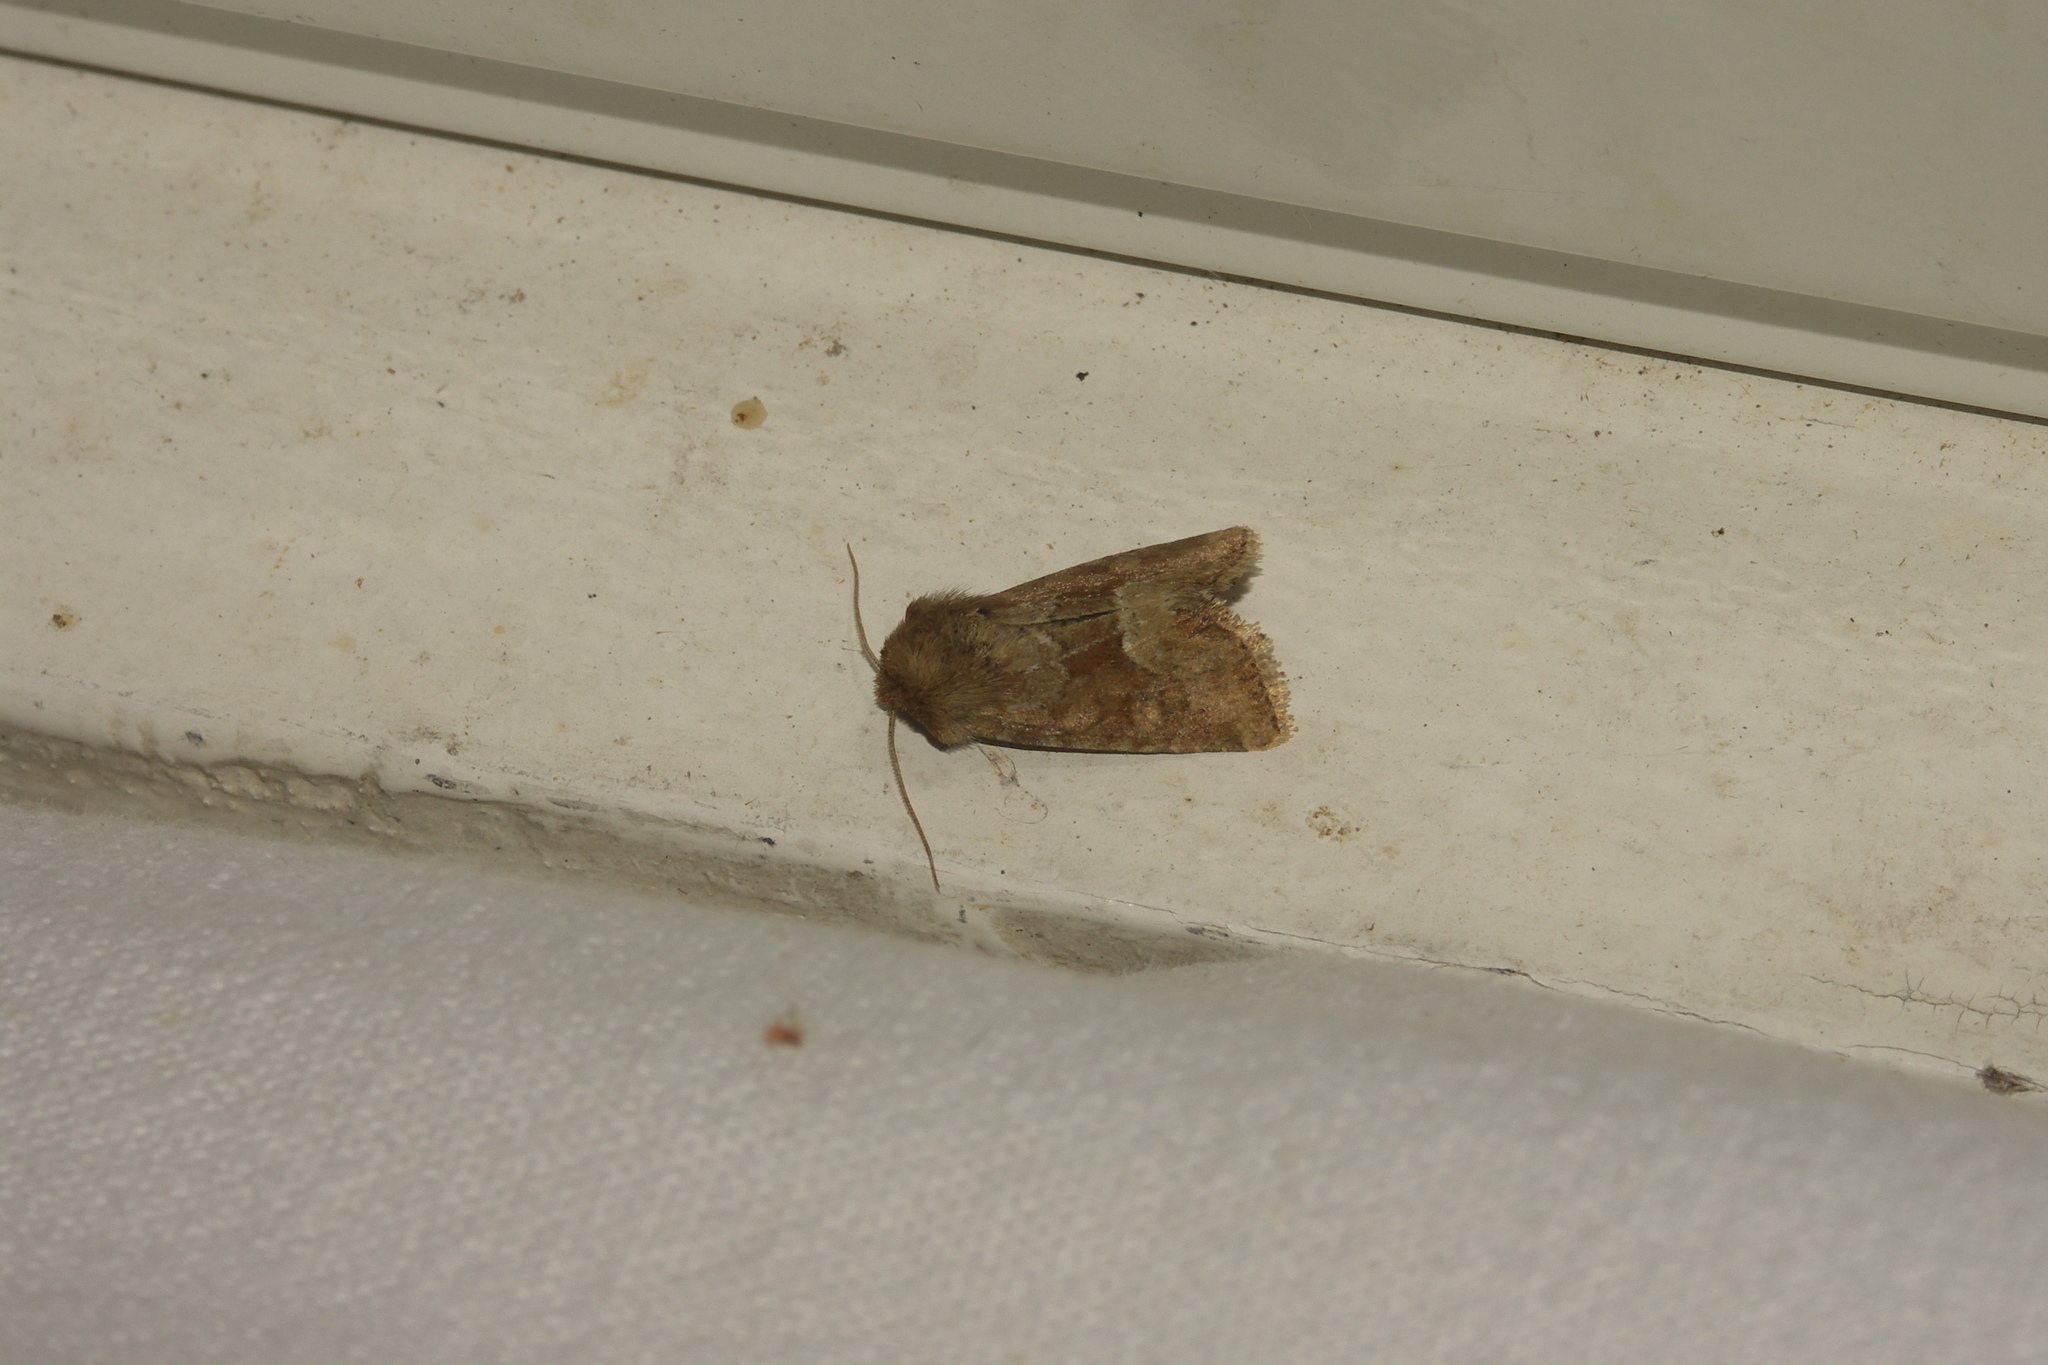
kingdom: Animalia
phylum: Arthropoda
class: Insecta
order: Lepidoptera
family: Noctuidae
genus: Oligia
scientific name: Oligia fasciuncula
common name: Middle-barred minor
